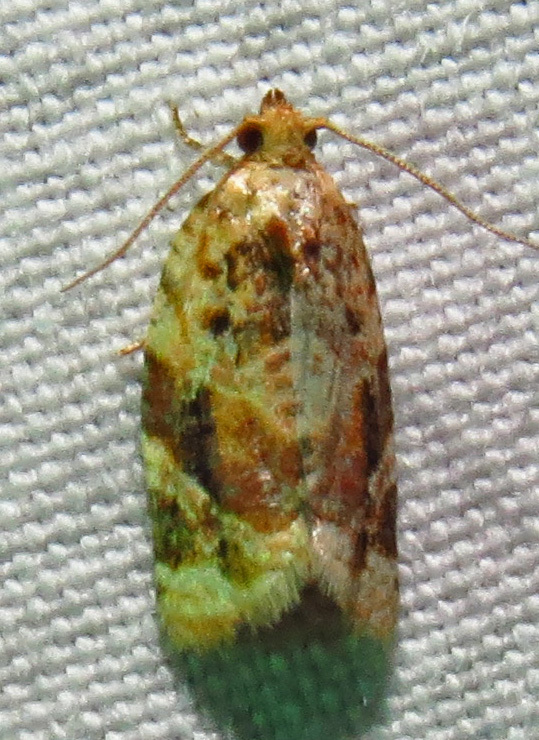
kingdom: Animalia
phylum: Arthropoda
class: Insecta
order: Lepidoptera
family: Tortricidae
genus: Argyrotaenia
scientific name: Argyrotaenia velutinana
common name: Red-banded leafroller moth
